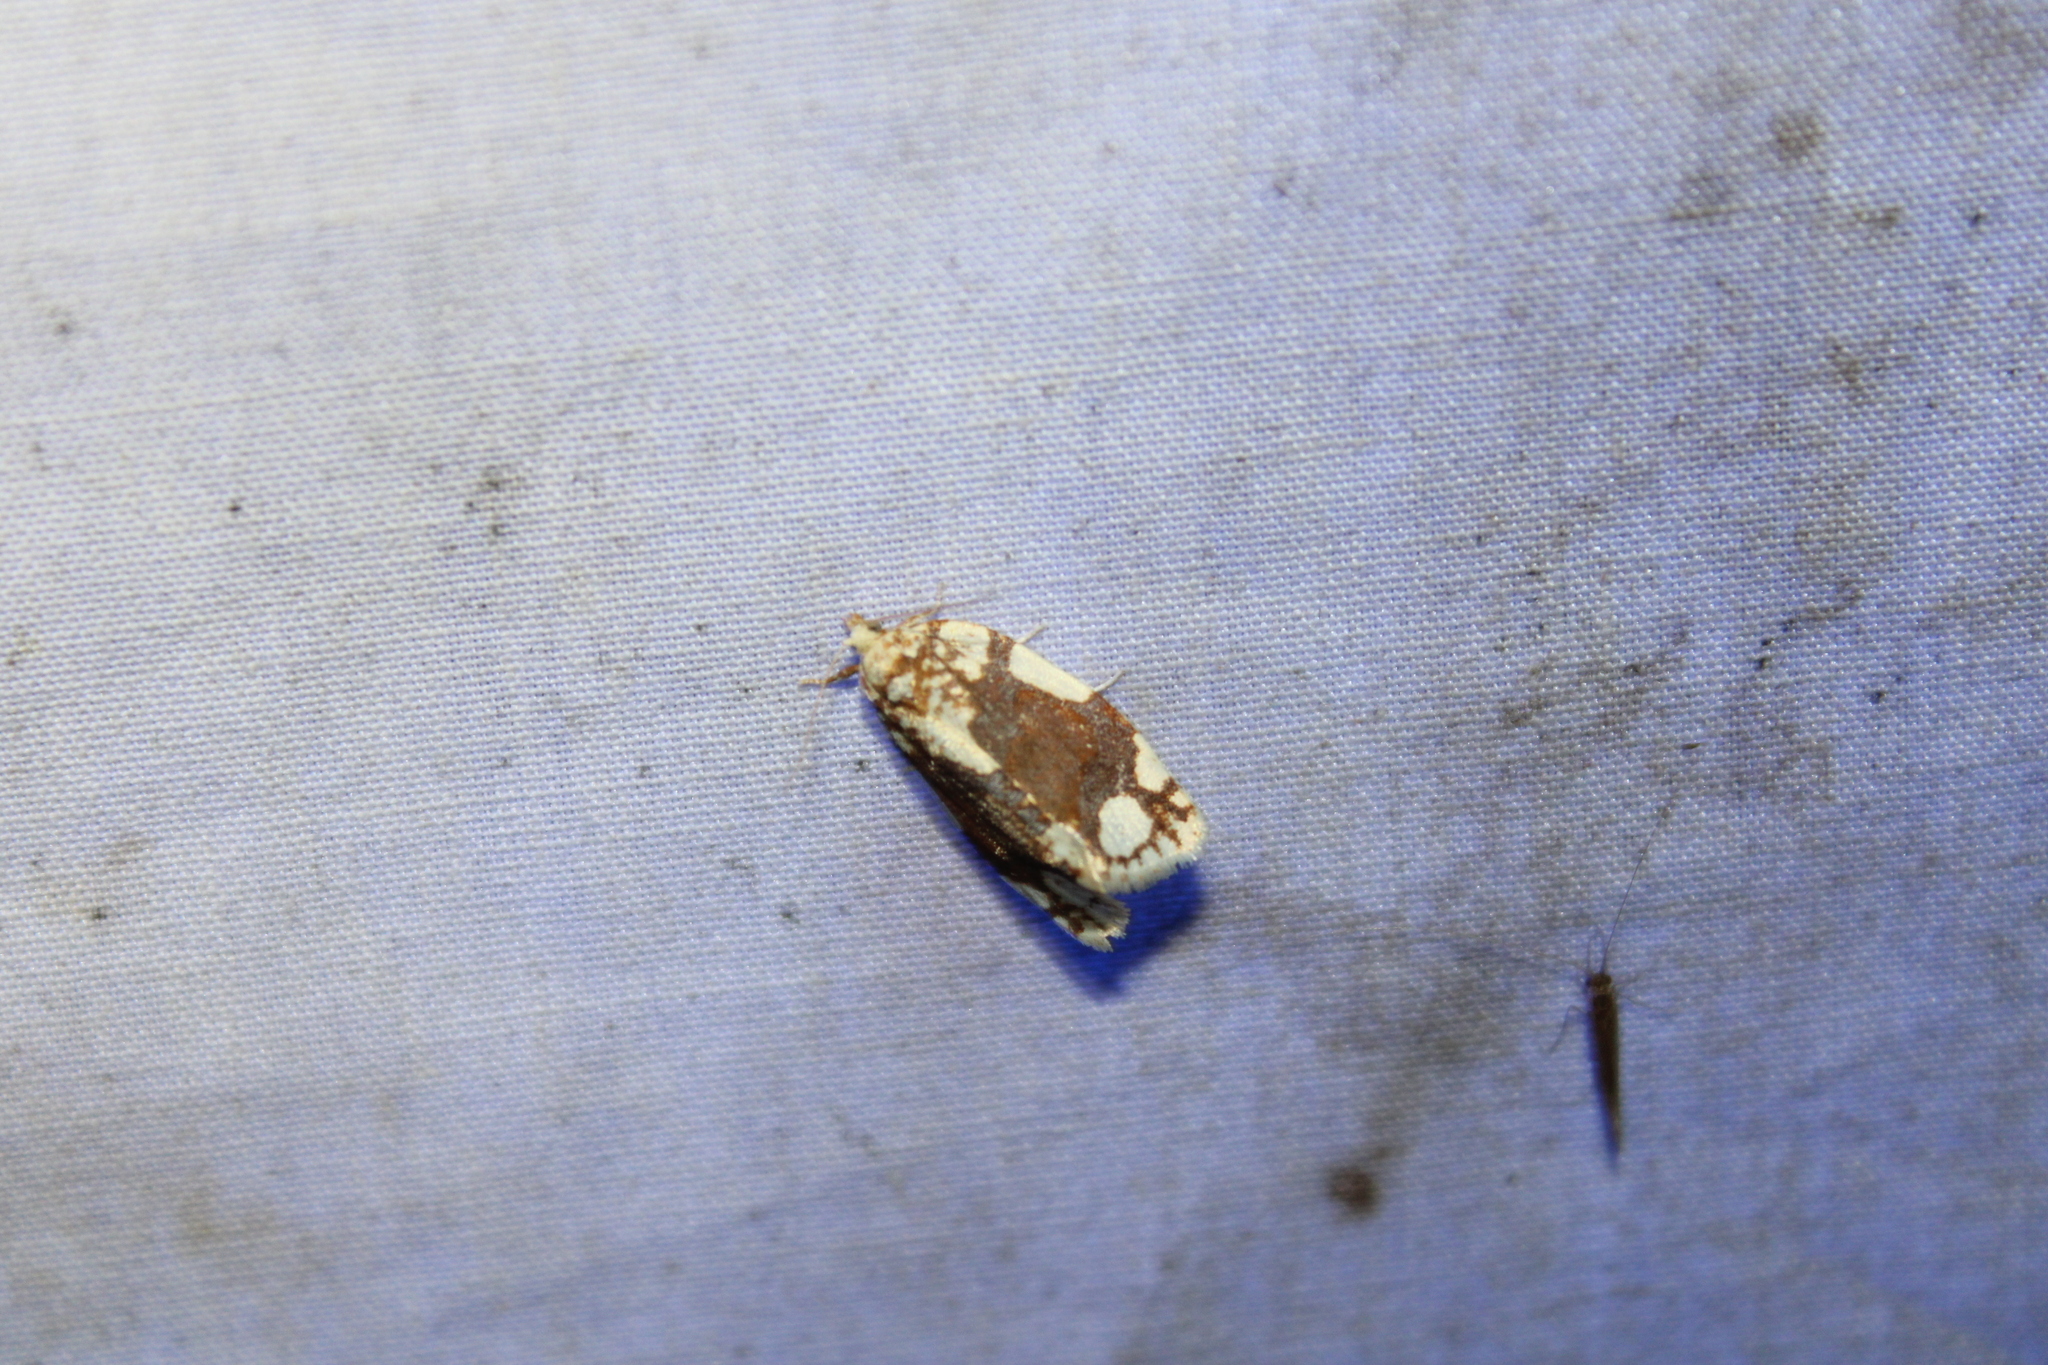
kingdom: Animalia
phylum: Arthropoda
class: Insecta
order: Lepidoptera
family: Tortricidae
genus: Argyrotaenia
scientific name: Argyrotaenia alisellana
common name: White-spotted leafroller moth
